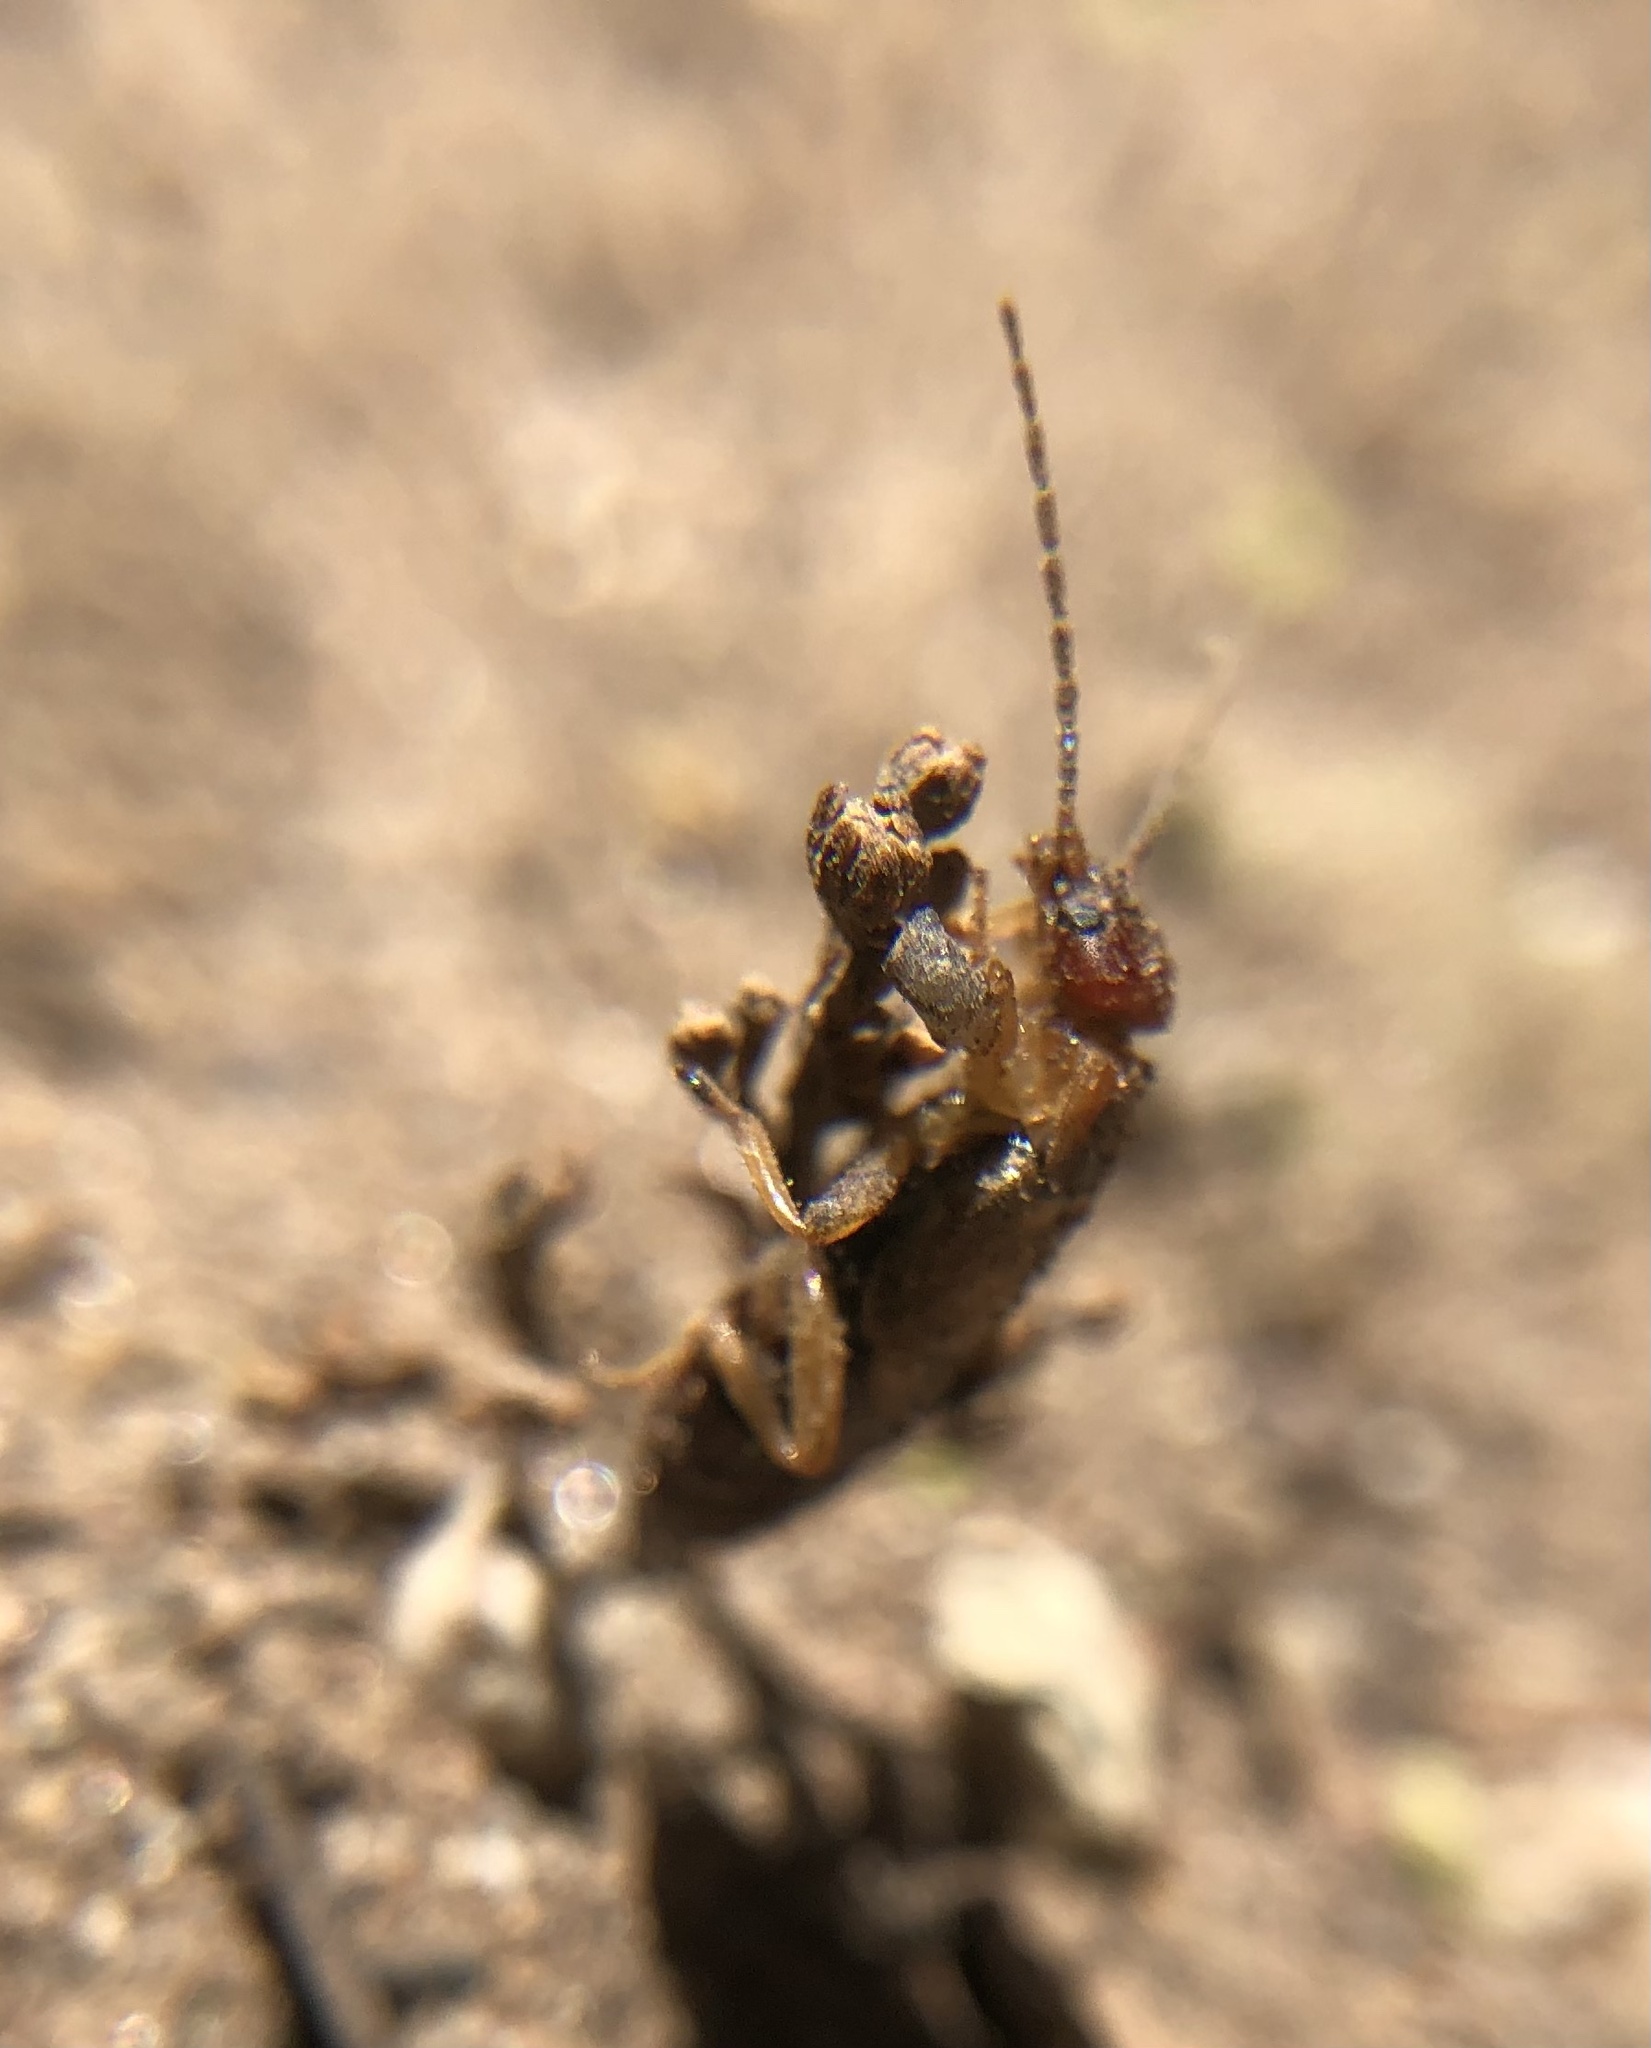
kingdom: Animalia
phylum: Arthropoda
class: Insecta
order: Dermaptera
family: Forficulidae
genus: Forficula
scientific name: Forficula
